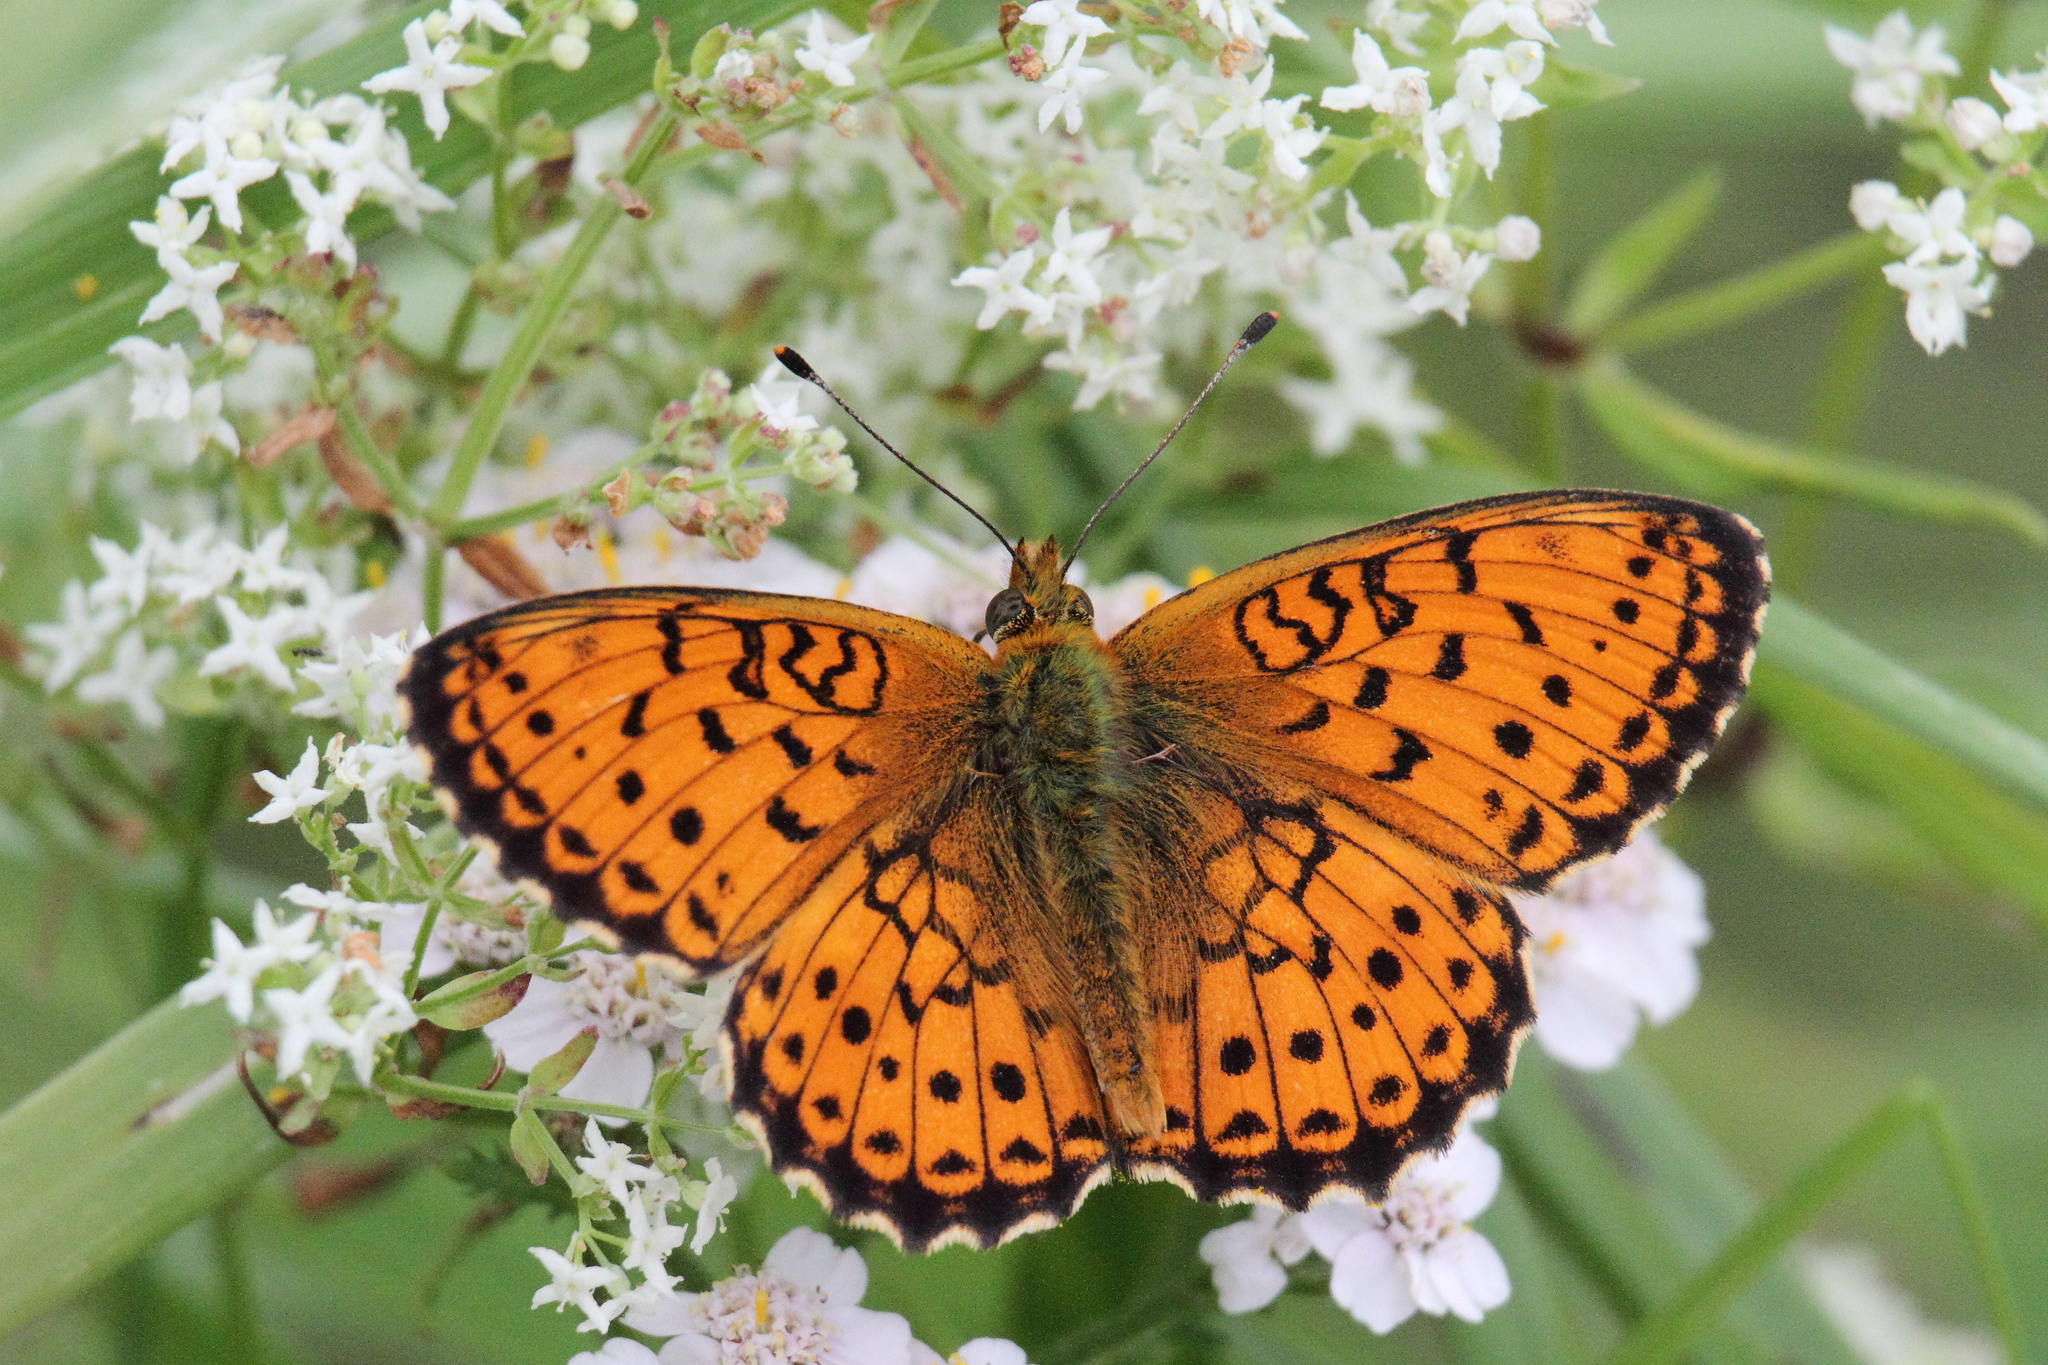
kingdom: Animalia
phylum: Arthropoda
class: Insecta
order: Lepidoptera
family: Nymphalidae
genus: Brenthis
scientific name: Brenthis ino
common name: Lesser marbled fritillary
